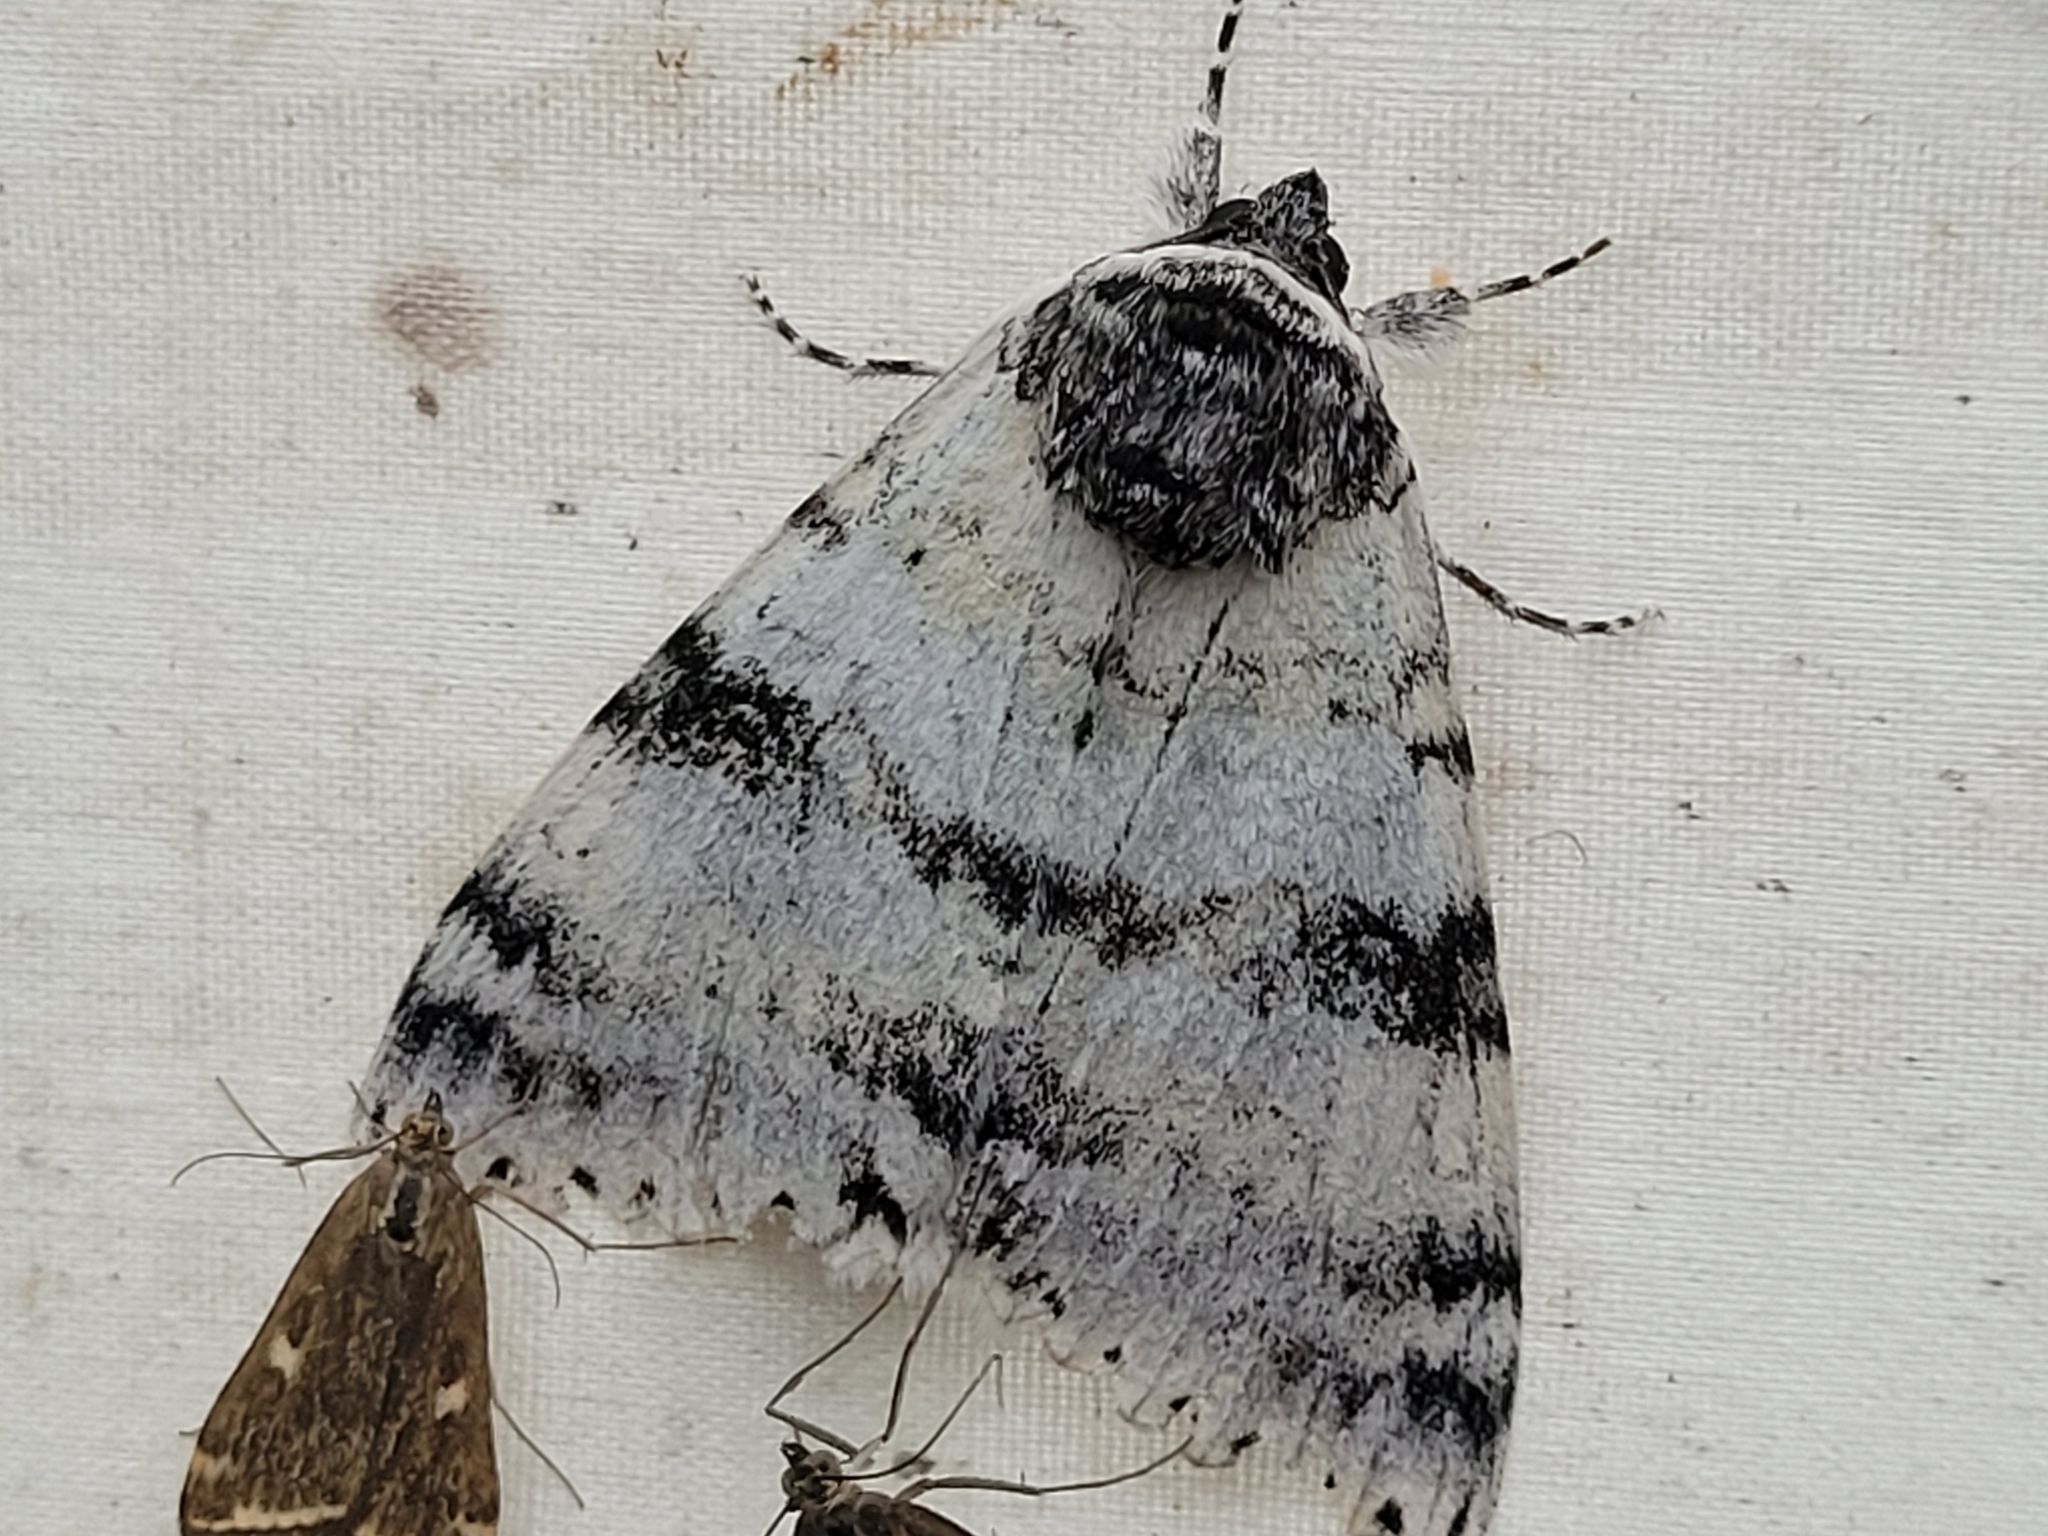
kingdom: Animalia
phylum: Arthropoda
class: Insecta
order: Lepidoptera
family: Erebidae
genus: Catocala
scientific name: Catocala relicta
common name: White underwing
